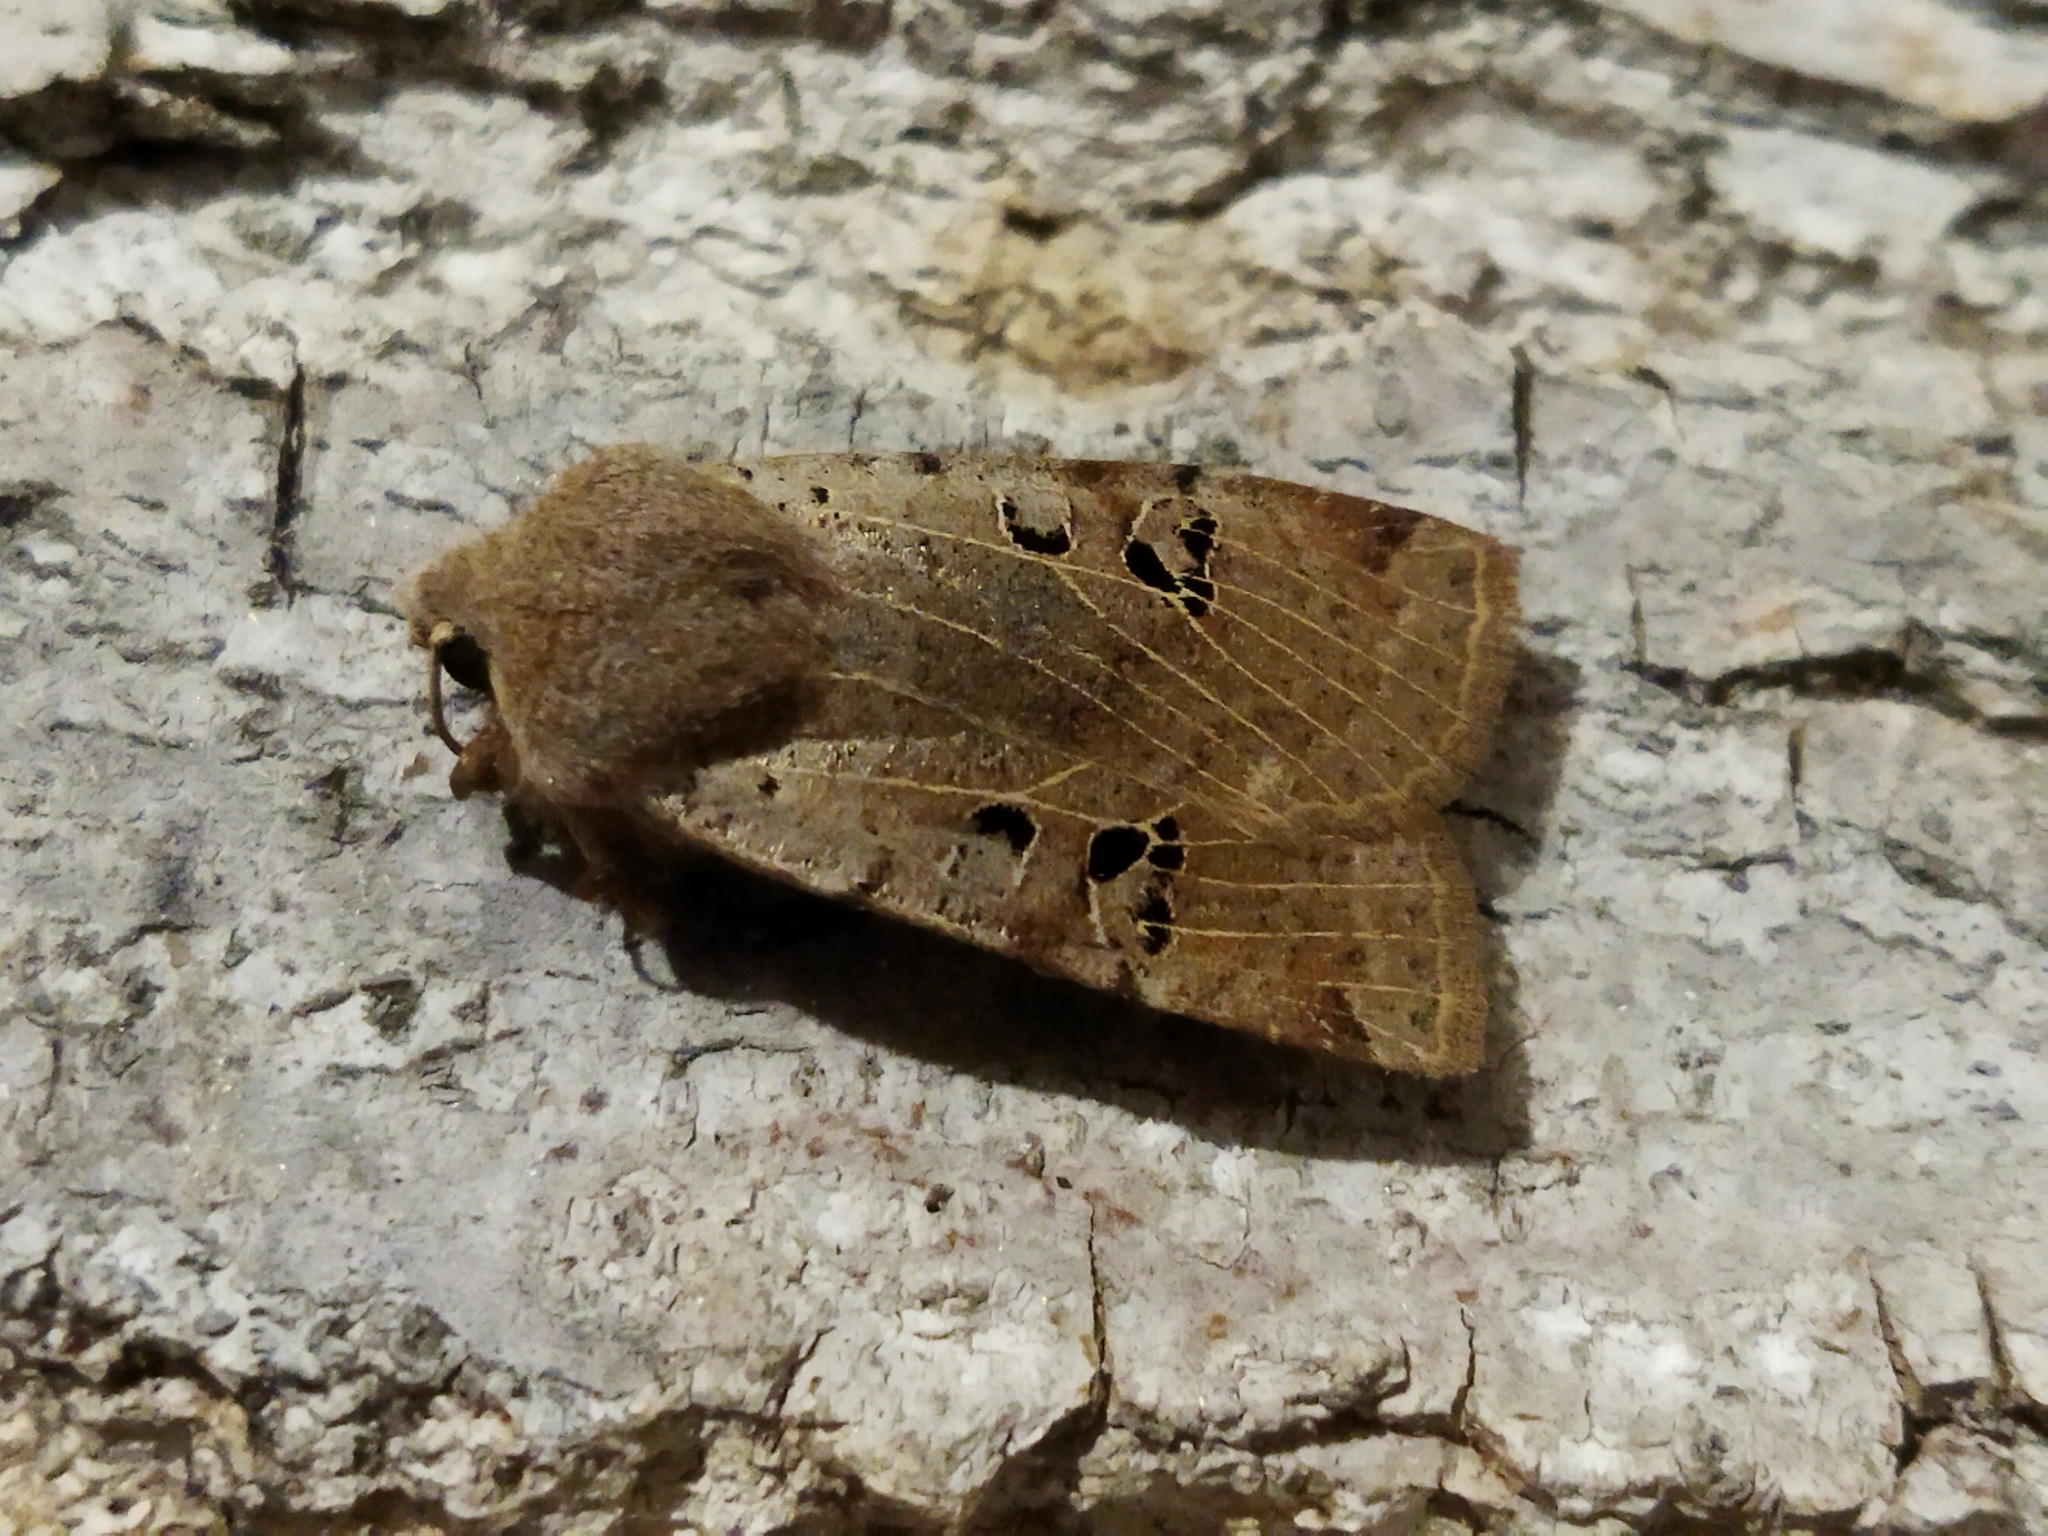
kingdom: Animalia
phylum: Arthropoda
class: Insecta
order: Lepidoptera
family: Noctuidae
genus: Conistra
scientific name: Conistra rubiginosa
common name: Black-spotted chestnut
